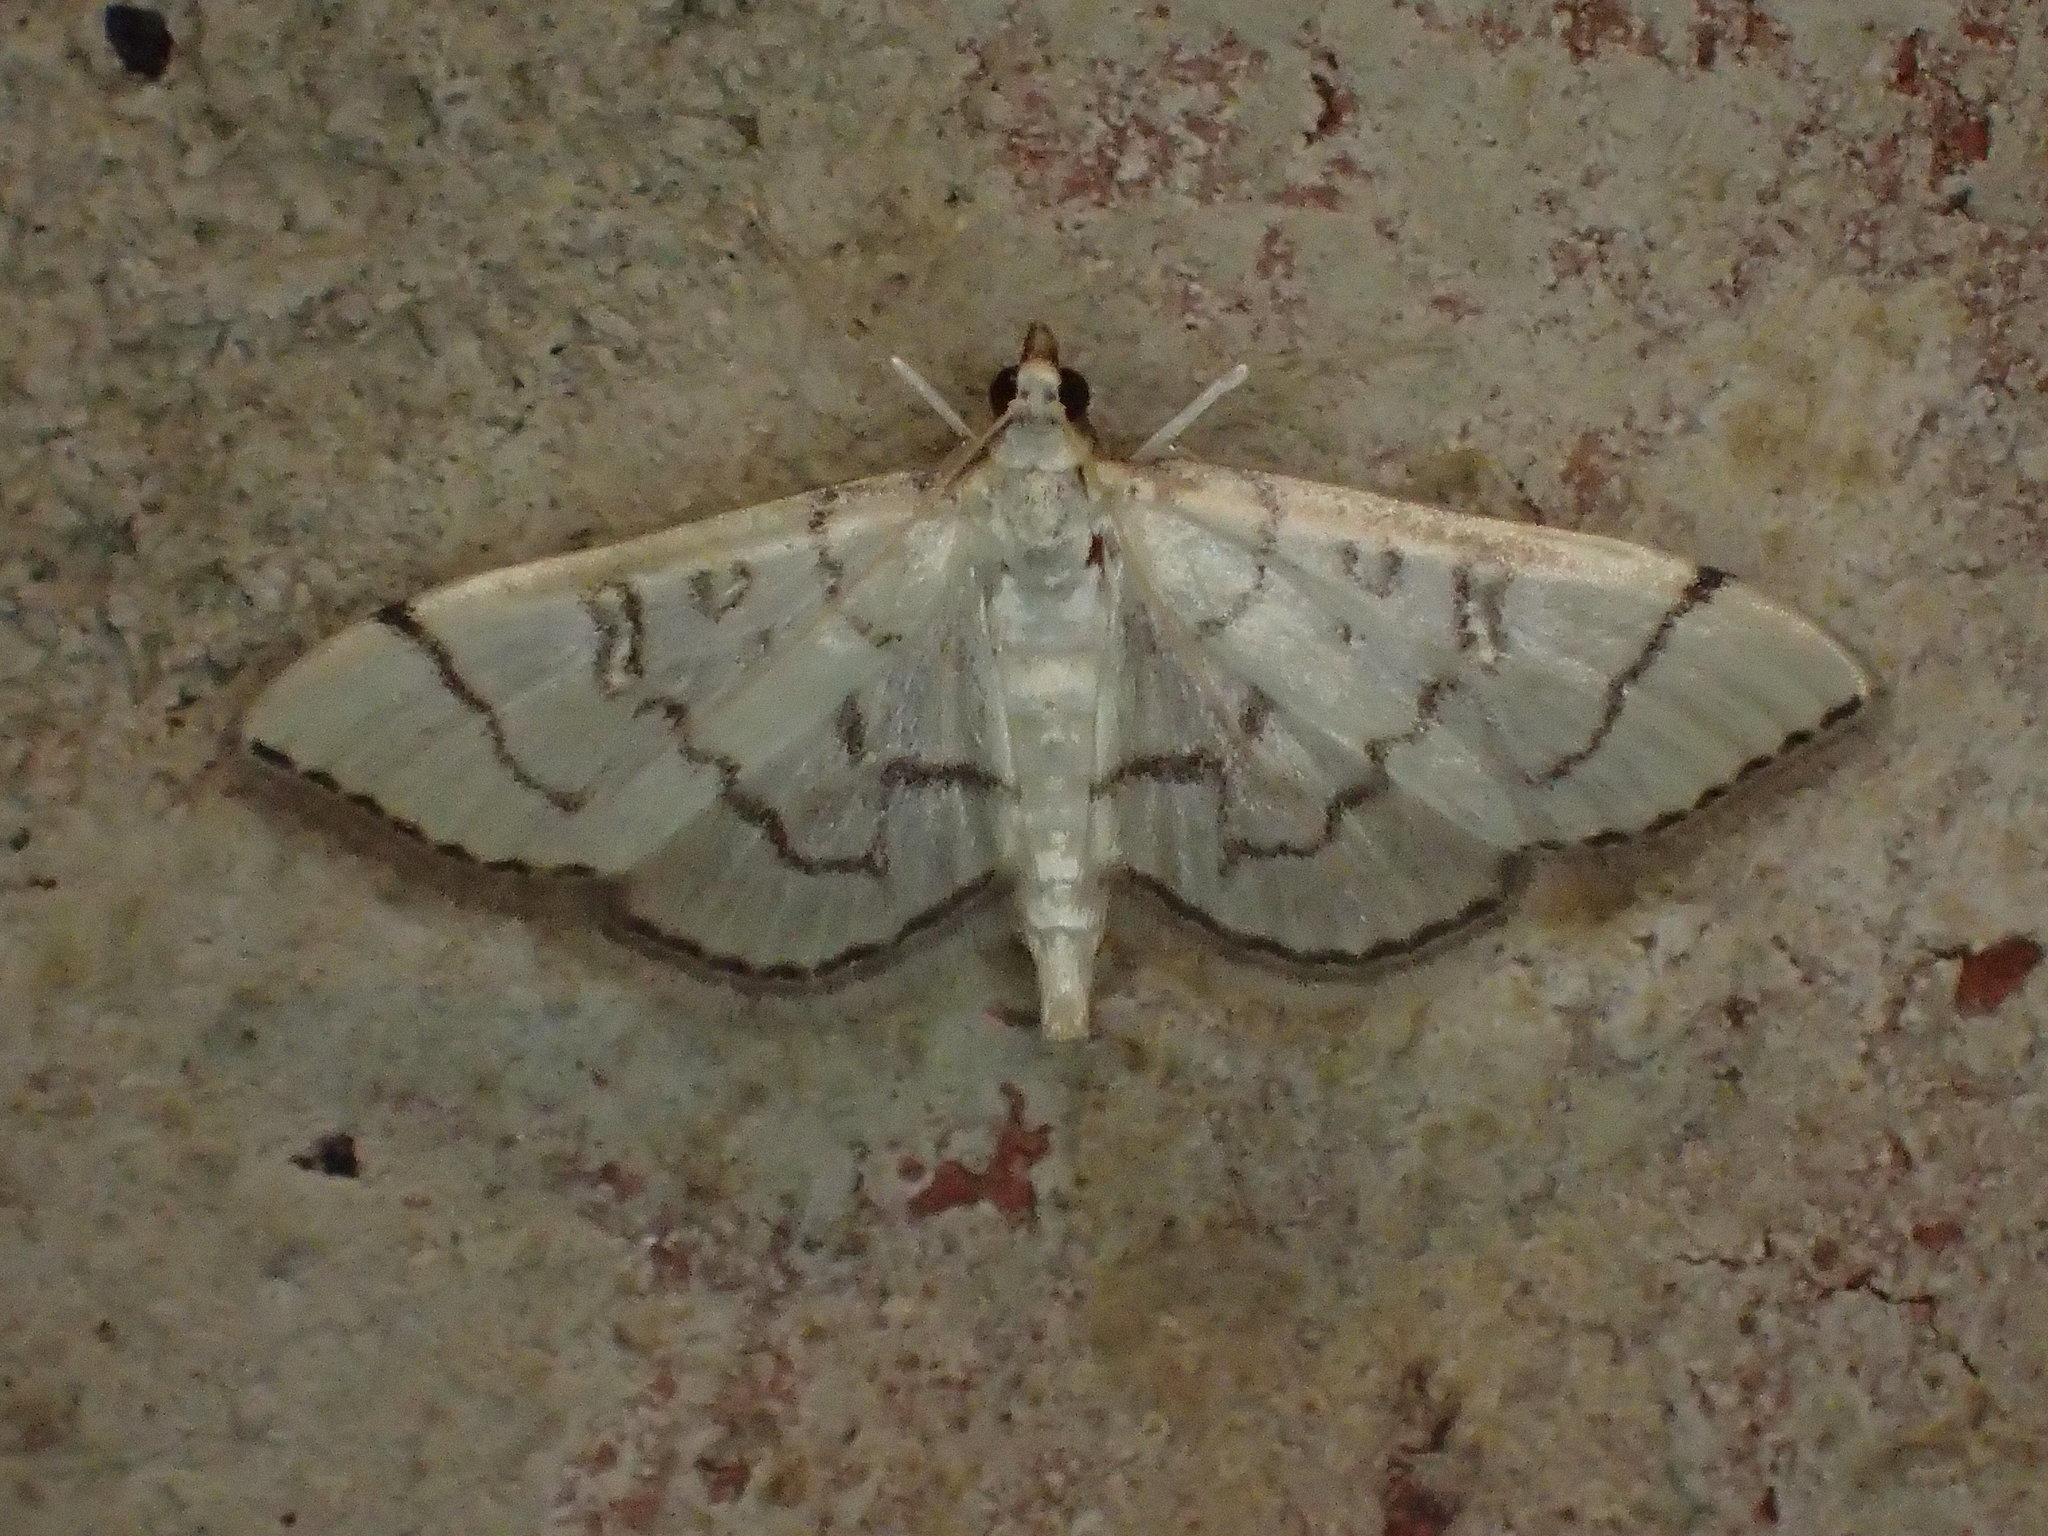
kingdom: Animalia
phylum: Arthropoda
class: Insecta
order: Lepidoptera
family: Crambidae
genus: Lamprosema
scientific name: Lamprosema Blepharomastix ranalis
